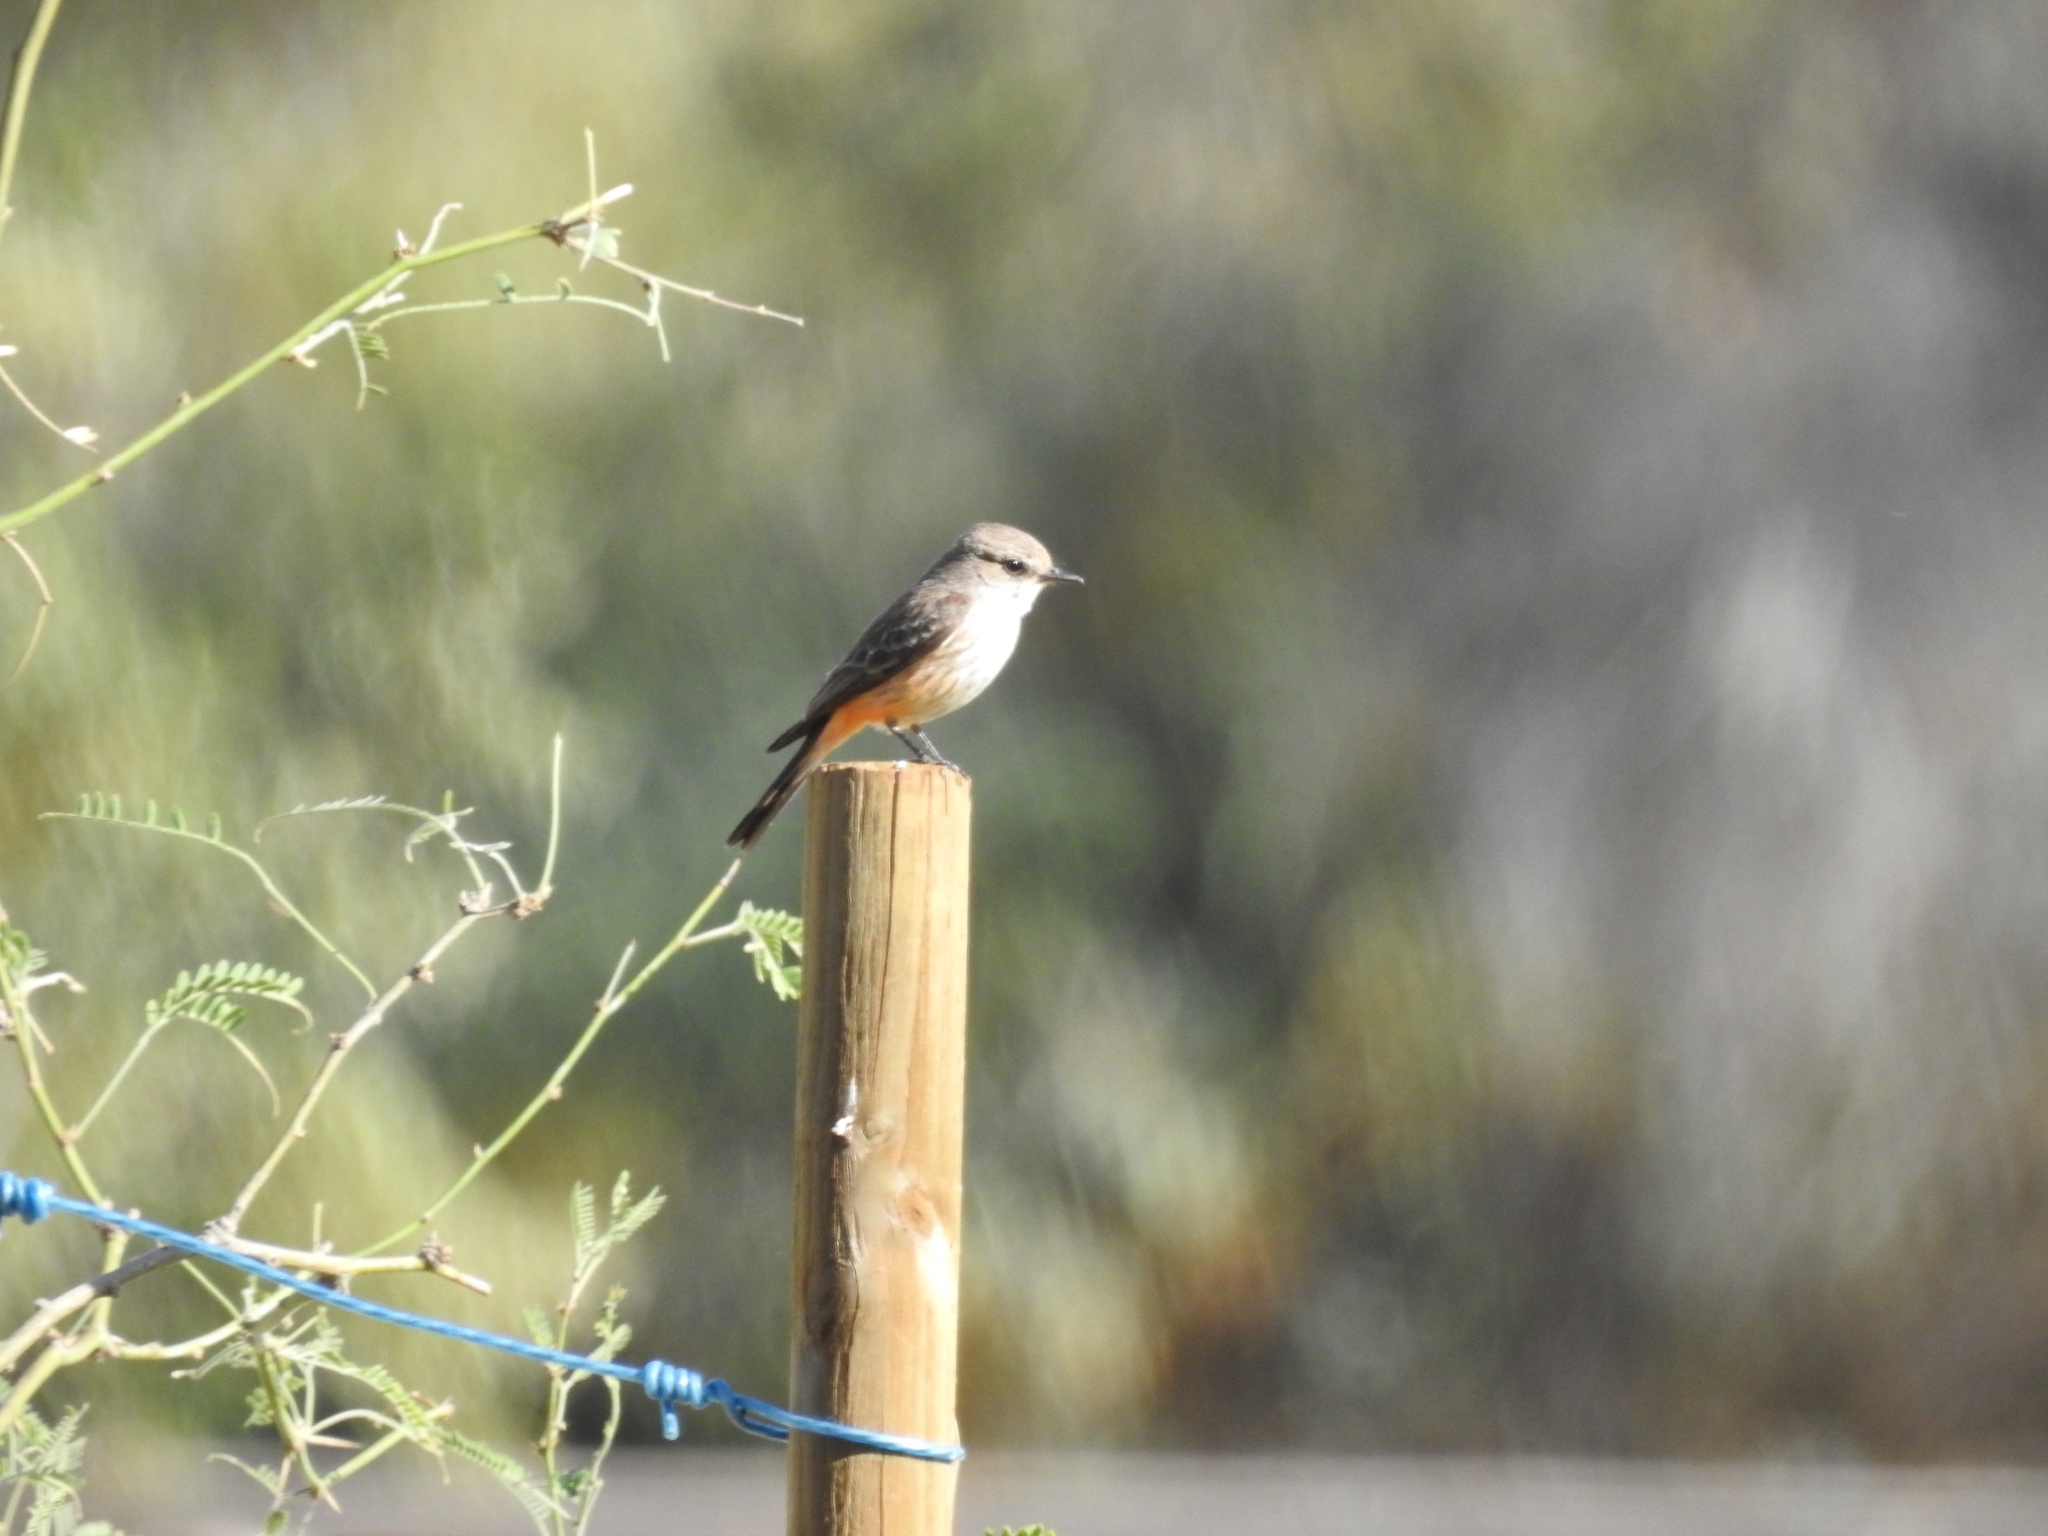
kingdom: Animalia
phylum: Chordata
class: Aves
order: Passeriformes
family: Tyrannidae
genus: Pyrocephalus
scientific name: Pyrocephalus rubinus
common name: Vermilion flycatcher
